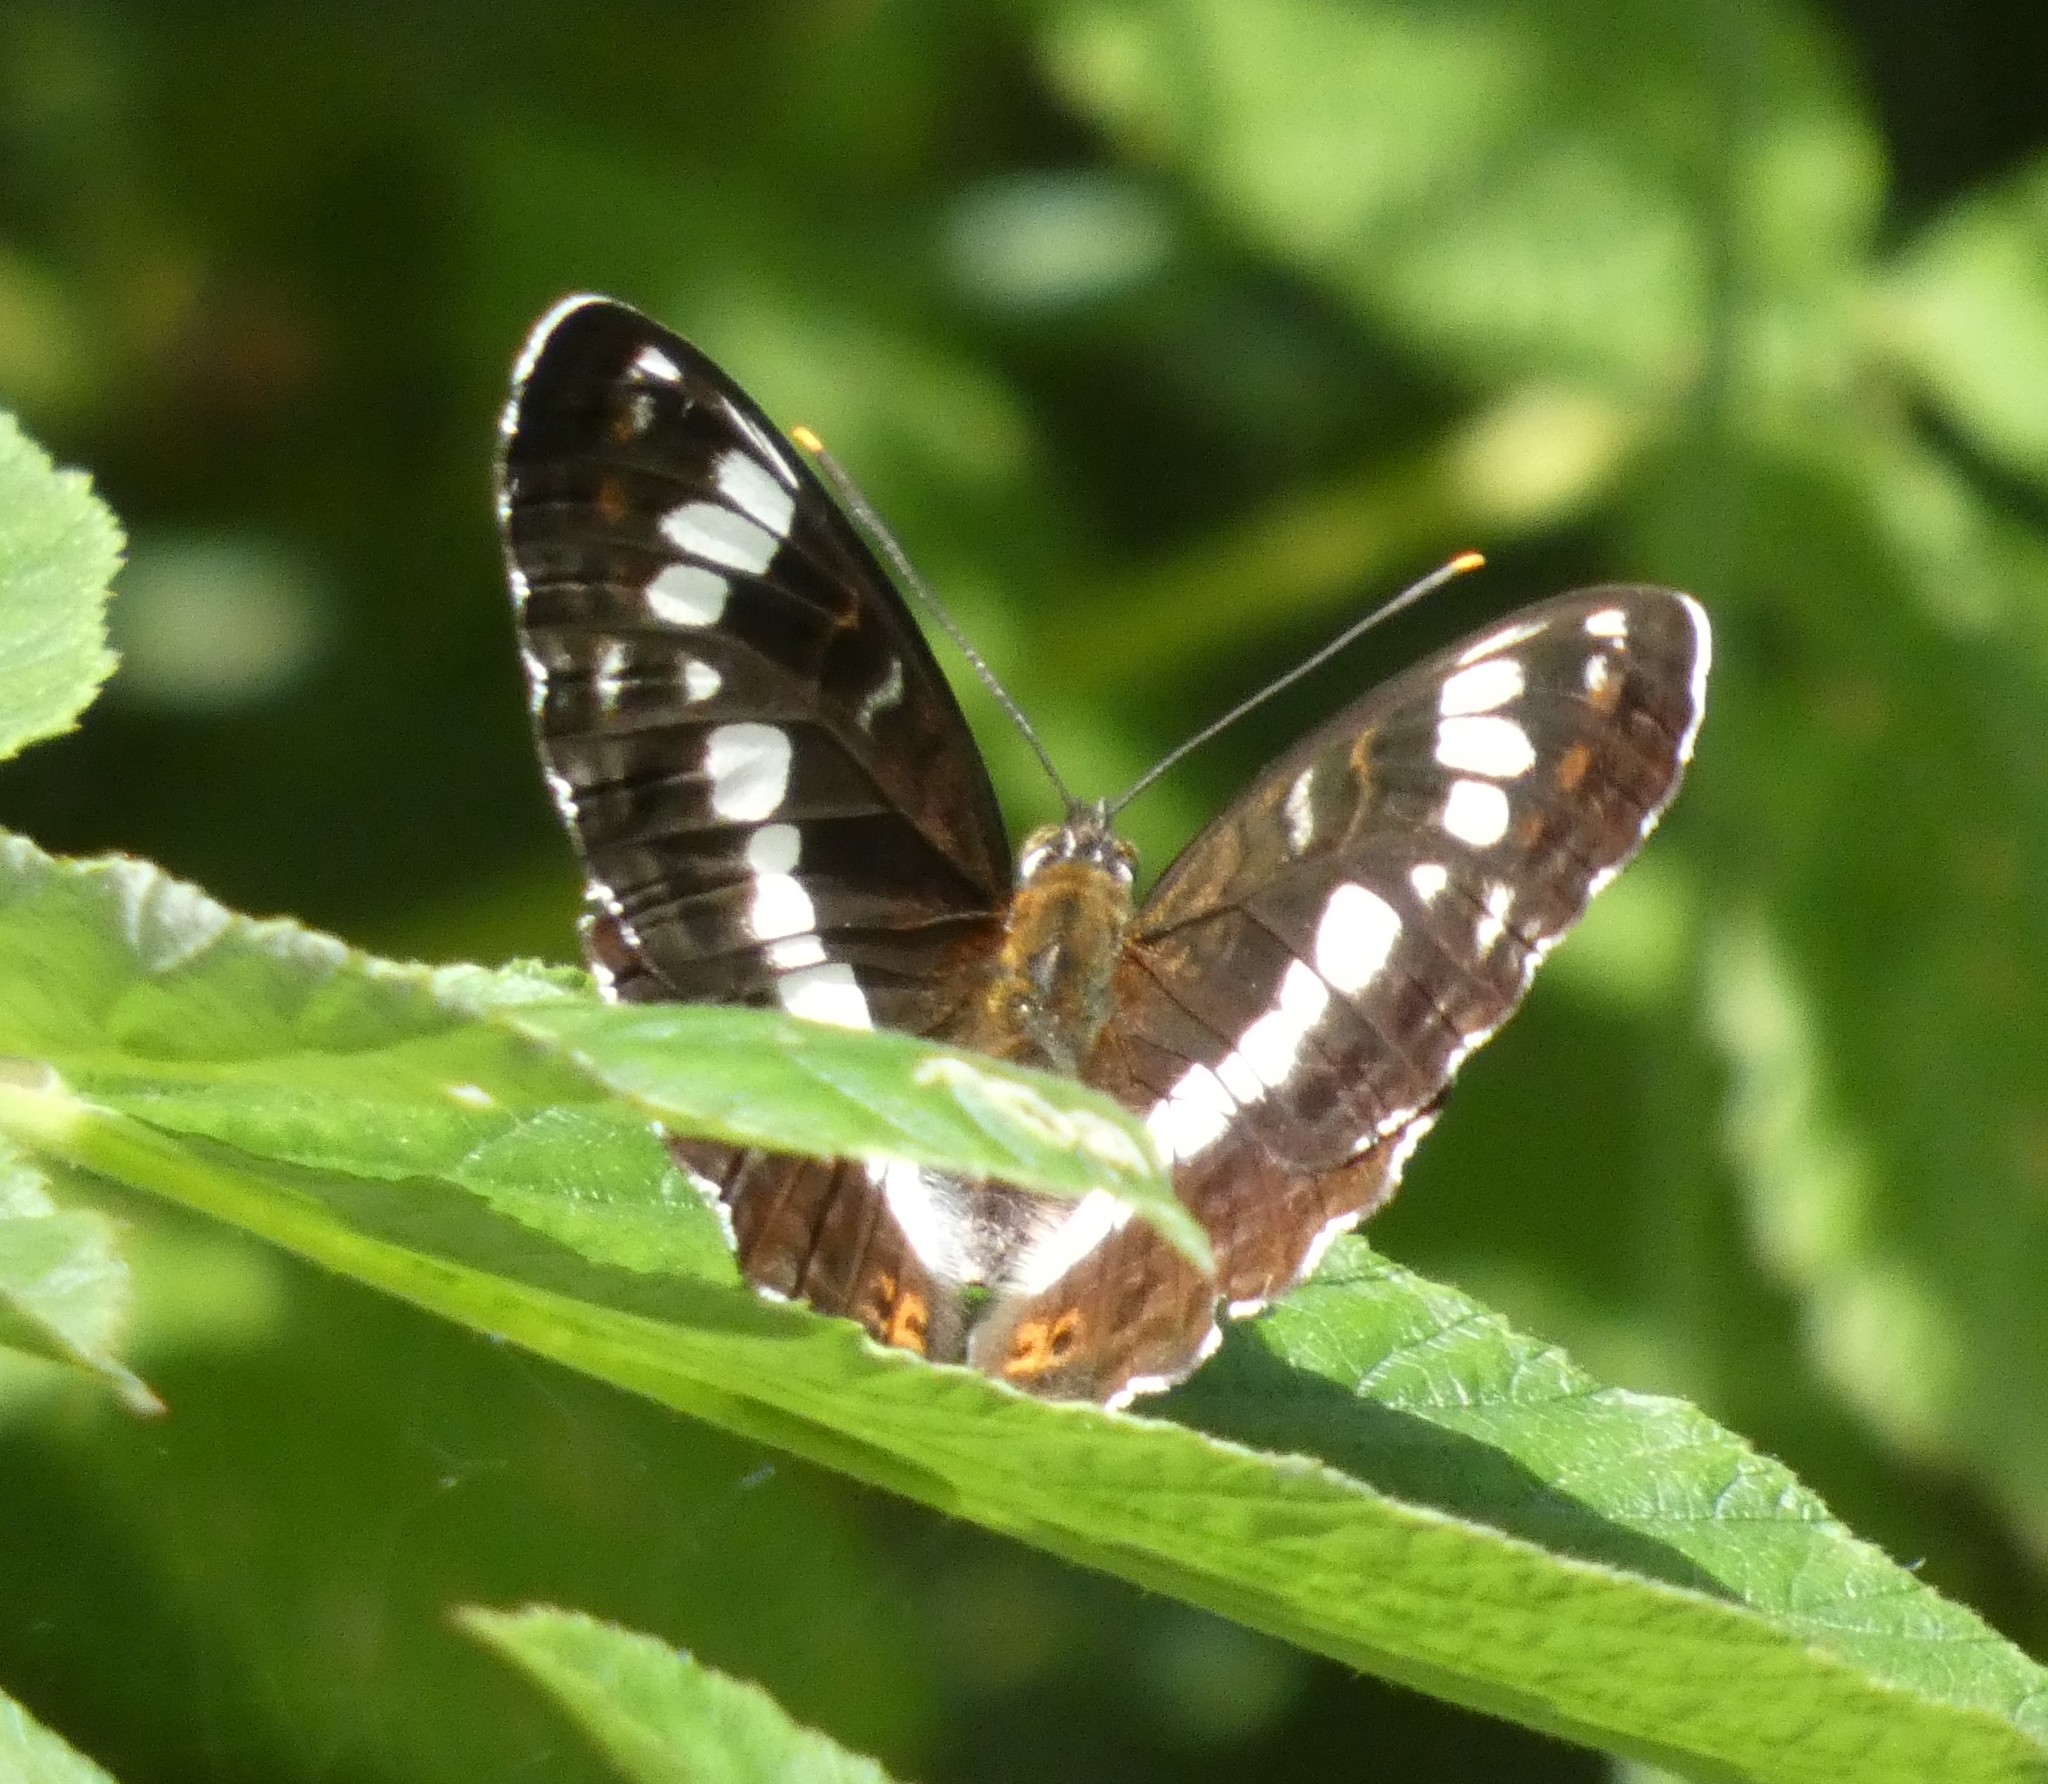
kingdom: Animalia
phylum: Arthropoda
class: Insecta
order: Lepidoptera
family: Nymphalidae
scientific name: Nymphalidae
